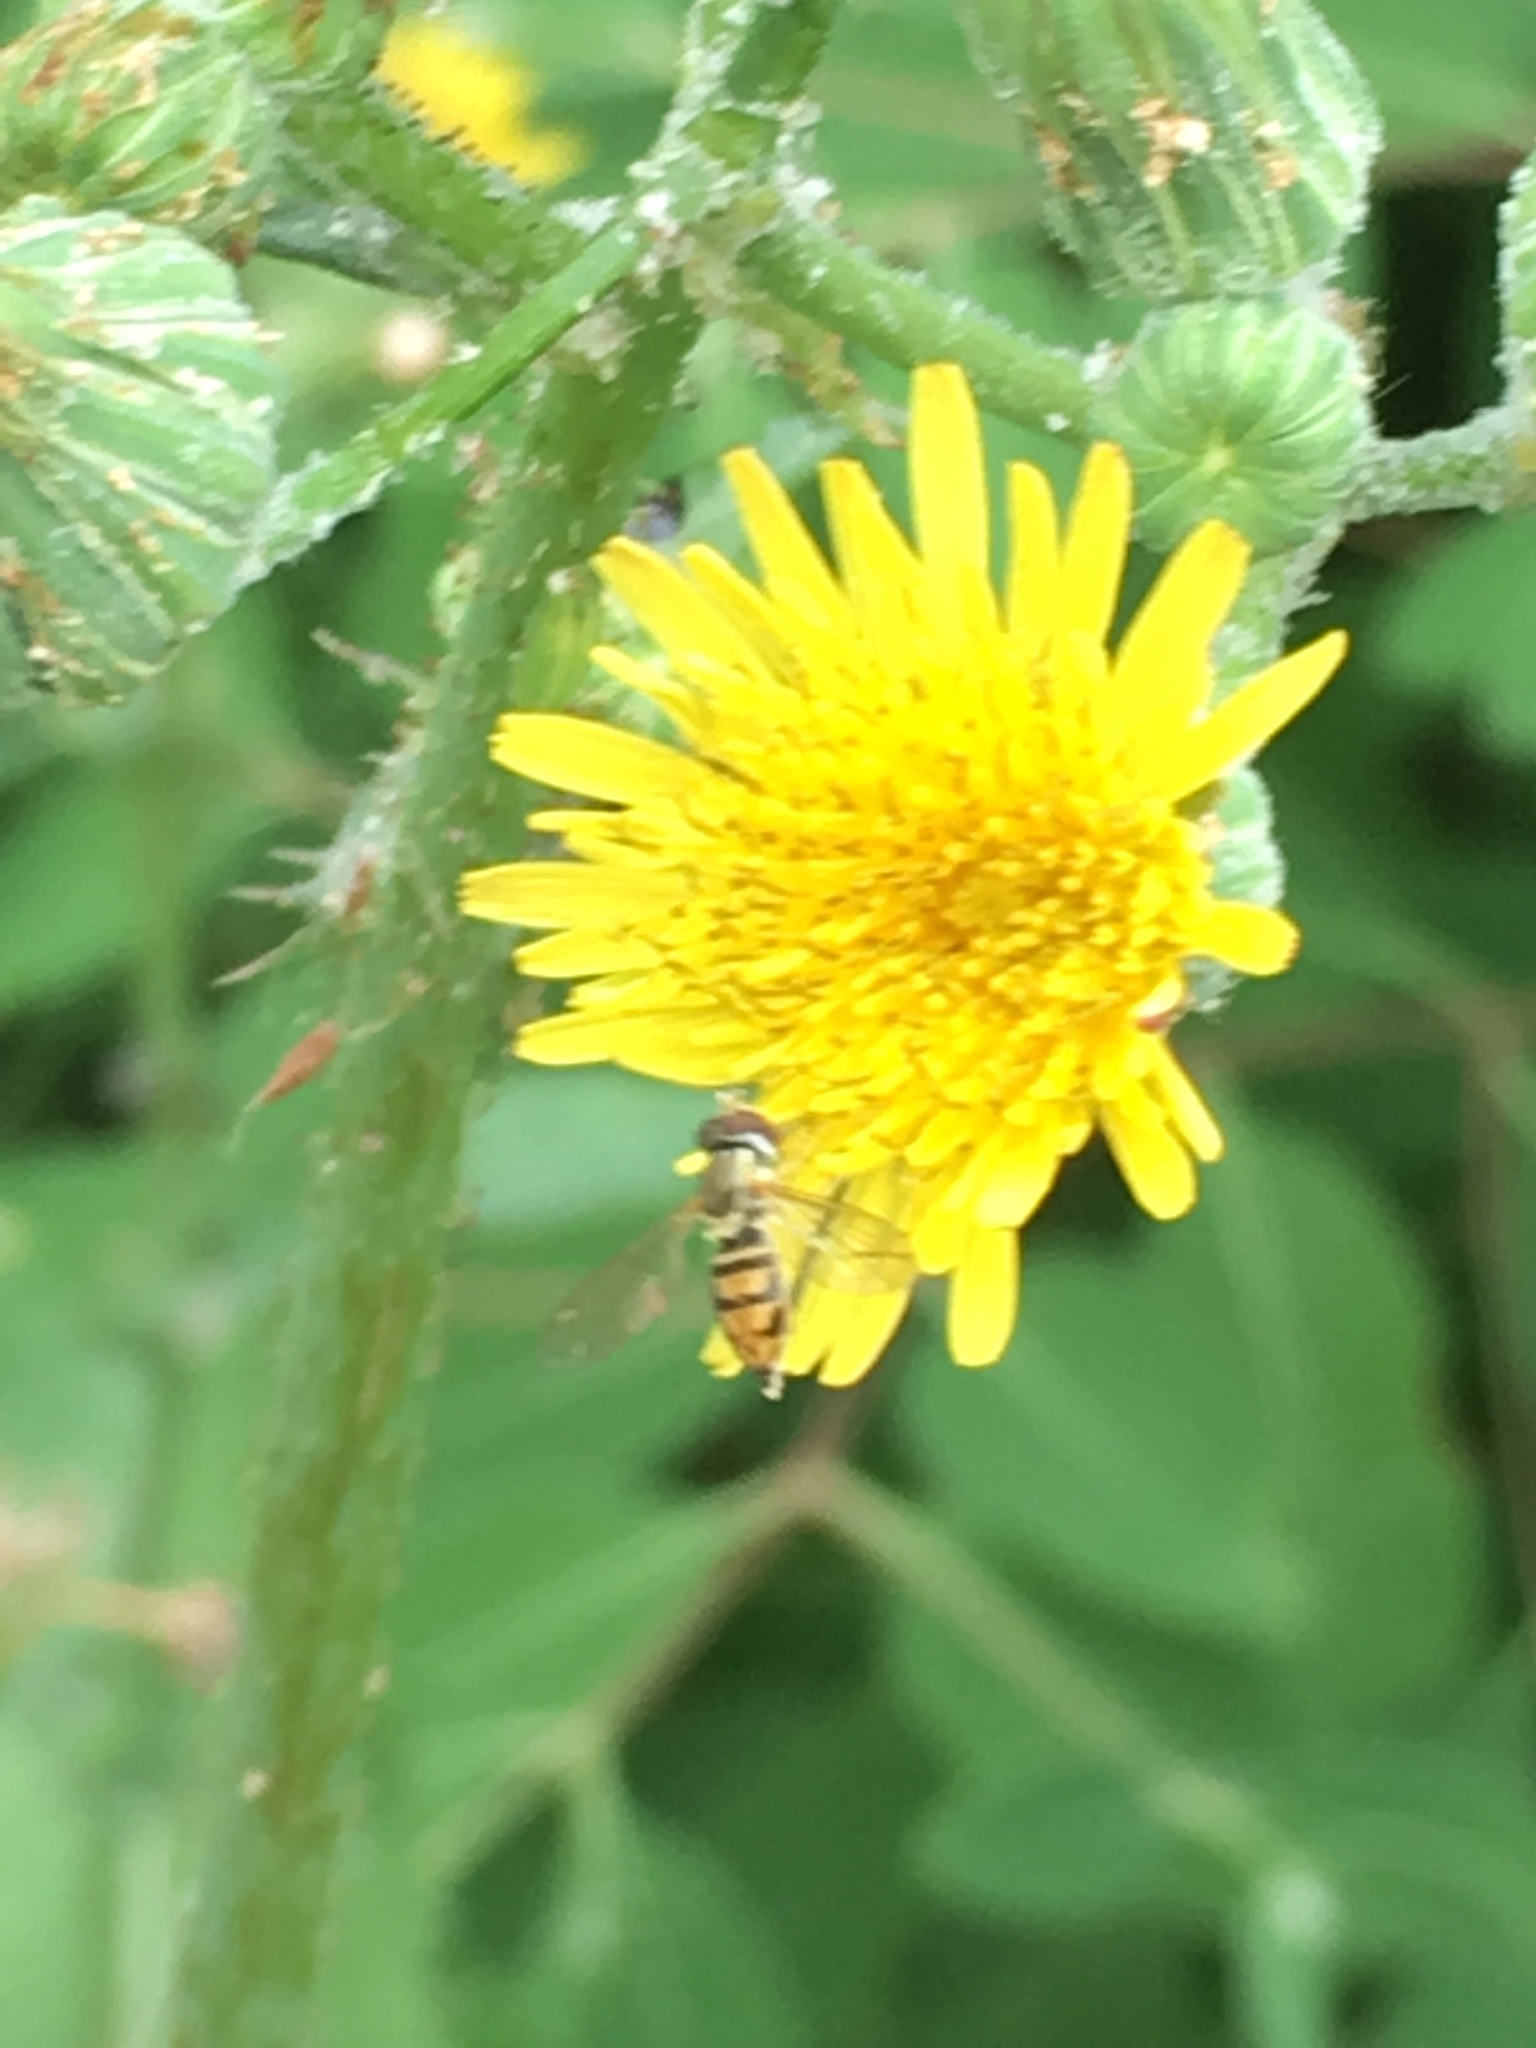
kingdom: Animalia
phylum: Arthropoda
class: Insecta
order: Diptera
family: Syrphidae
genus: Toxomerus
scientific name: Toxomerus marginatus
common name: Syrphid fly
